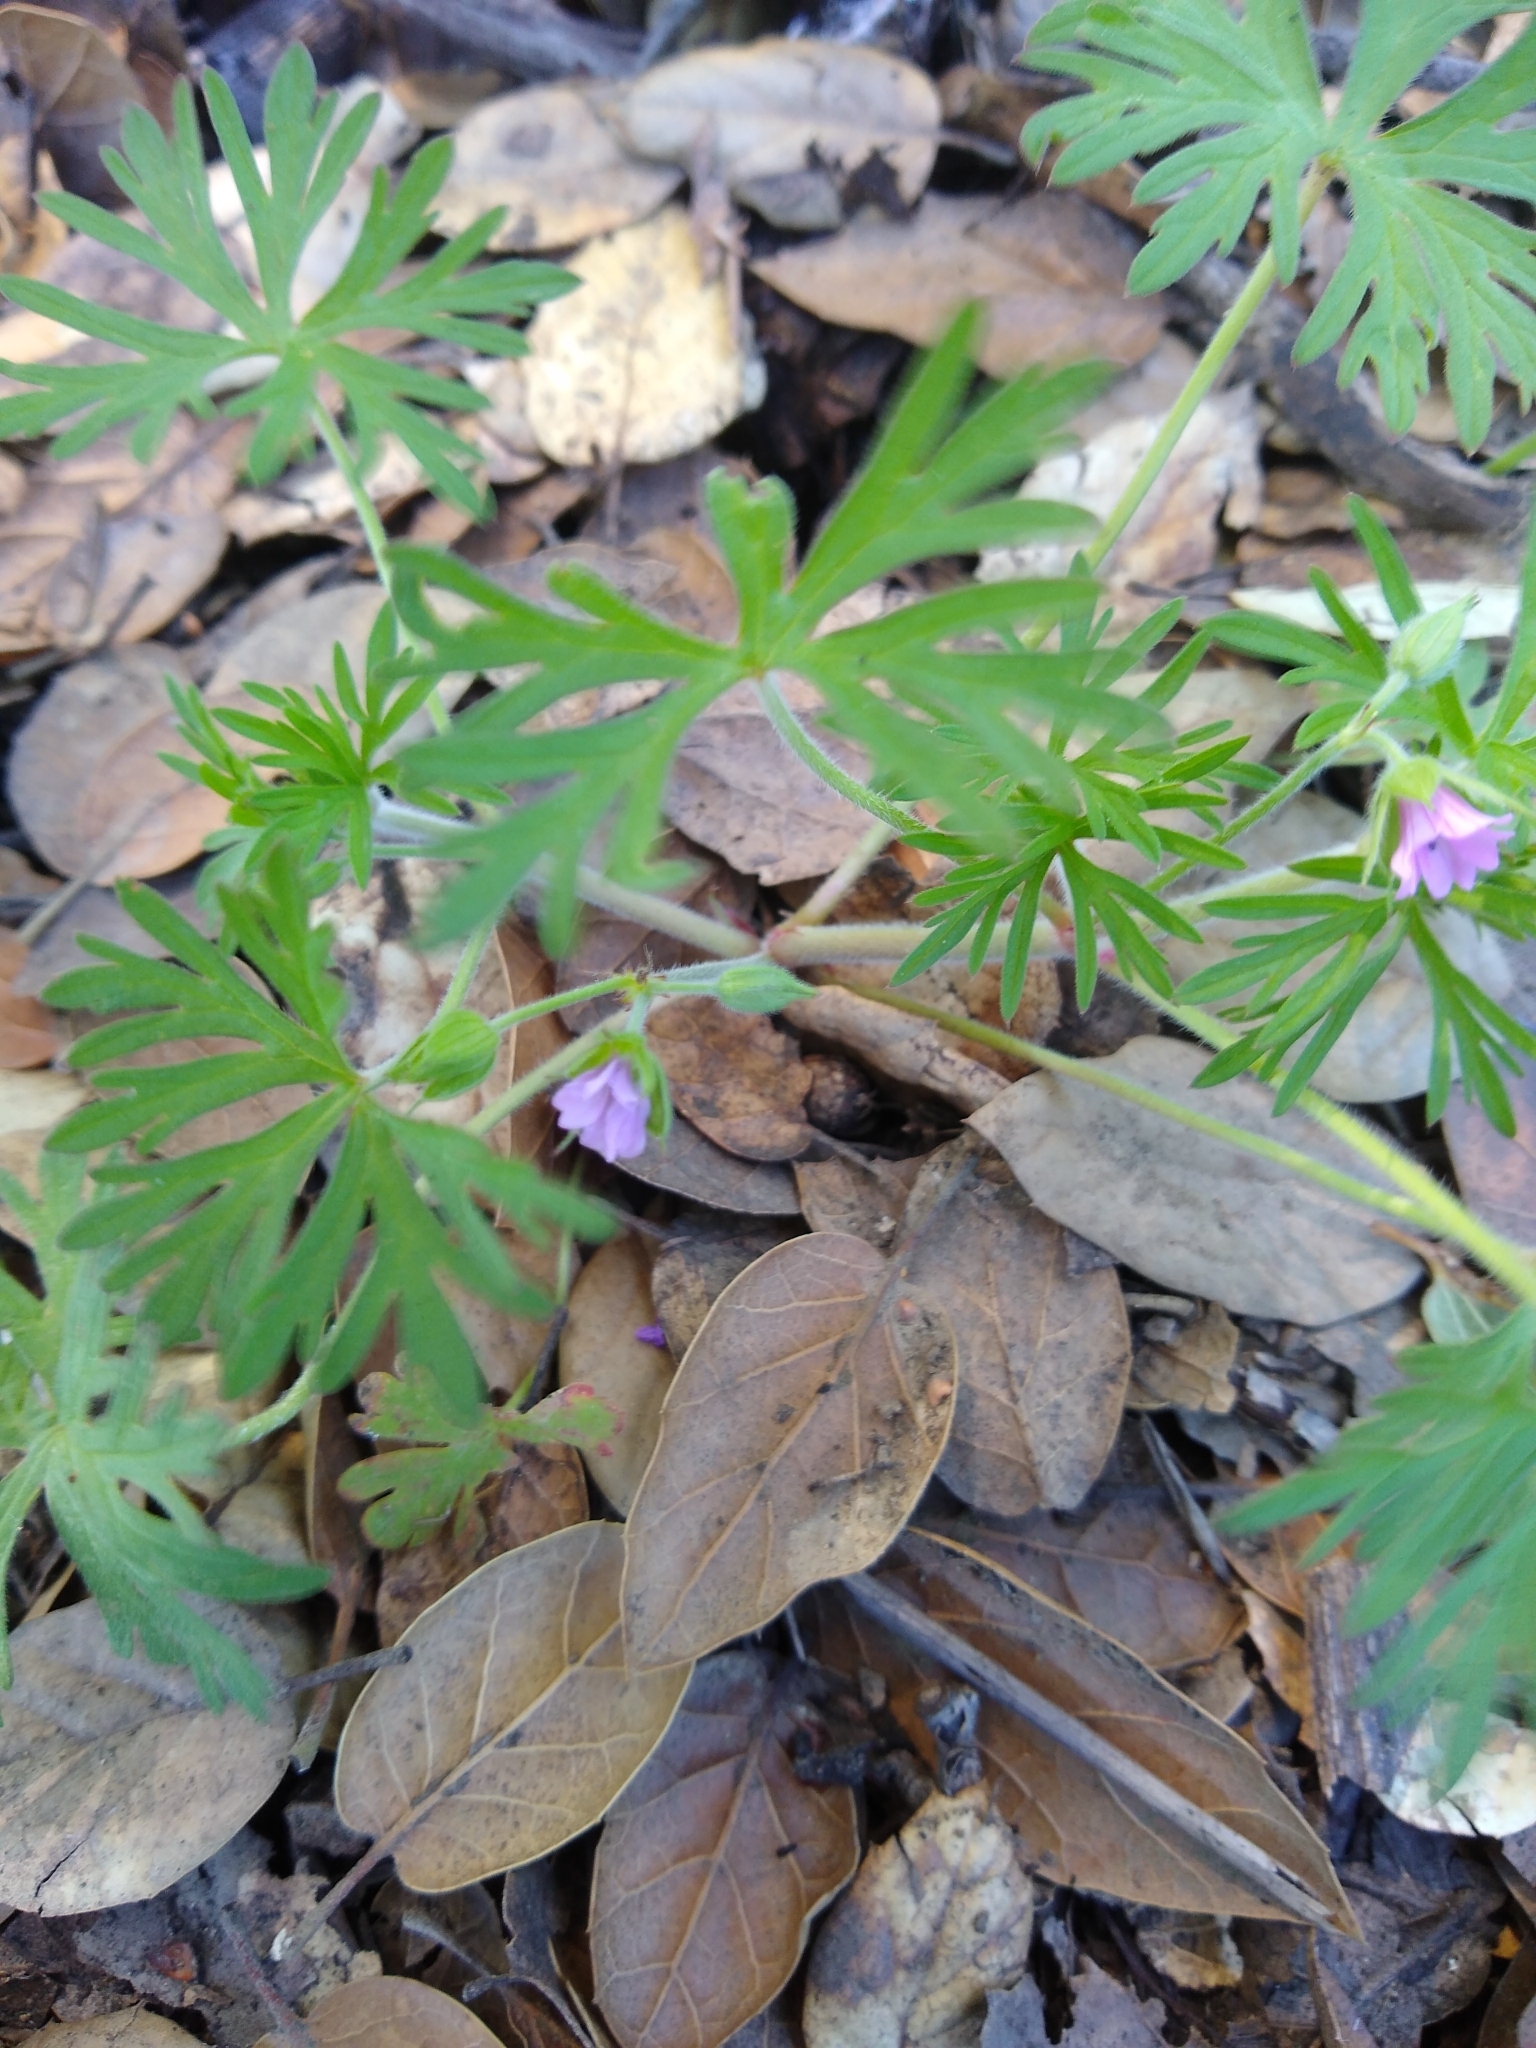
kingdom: Plantae
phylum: Tracheophyta
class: Magnoliopsida
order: Geraniales
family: Geraniaceae
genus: Geranium
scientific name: Geranium dissectum
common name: Cut-leaved crane's-bill
